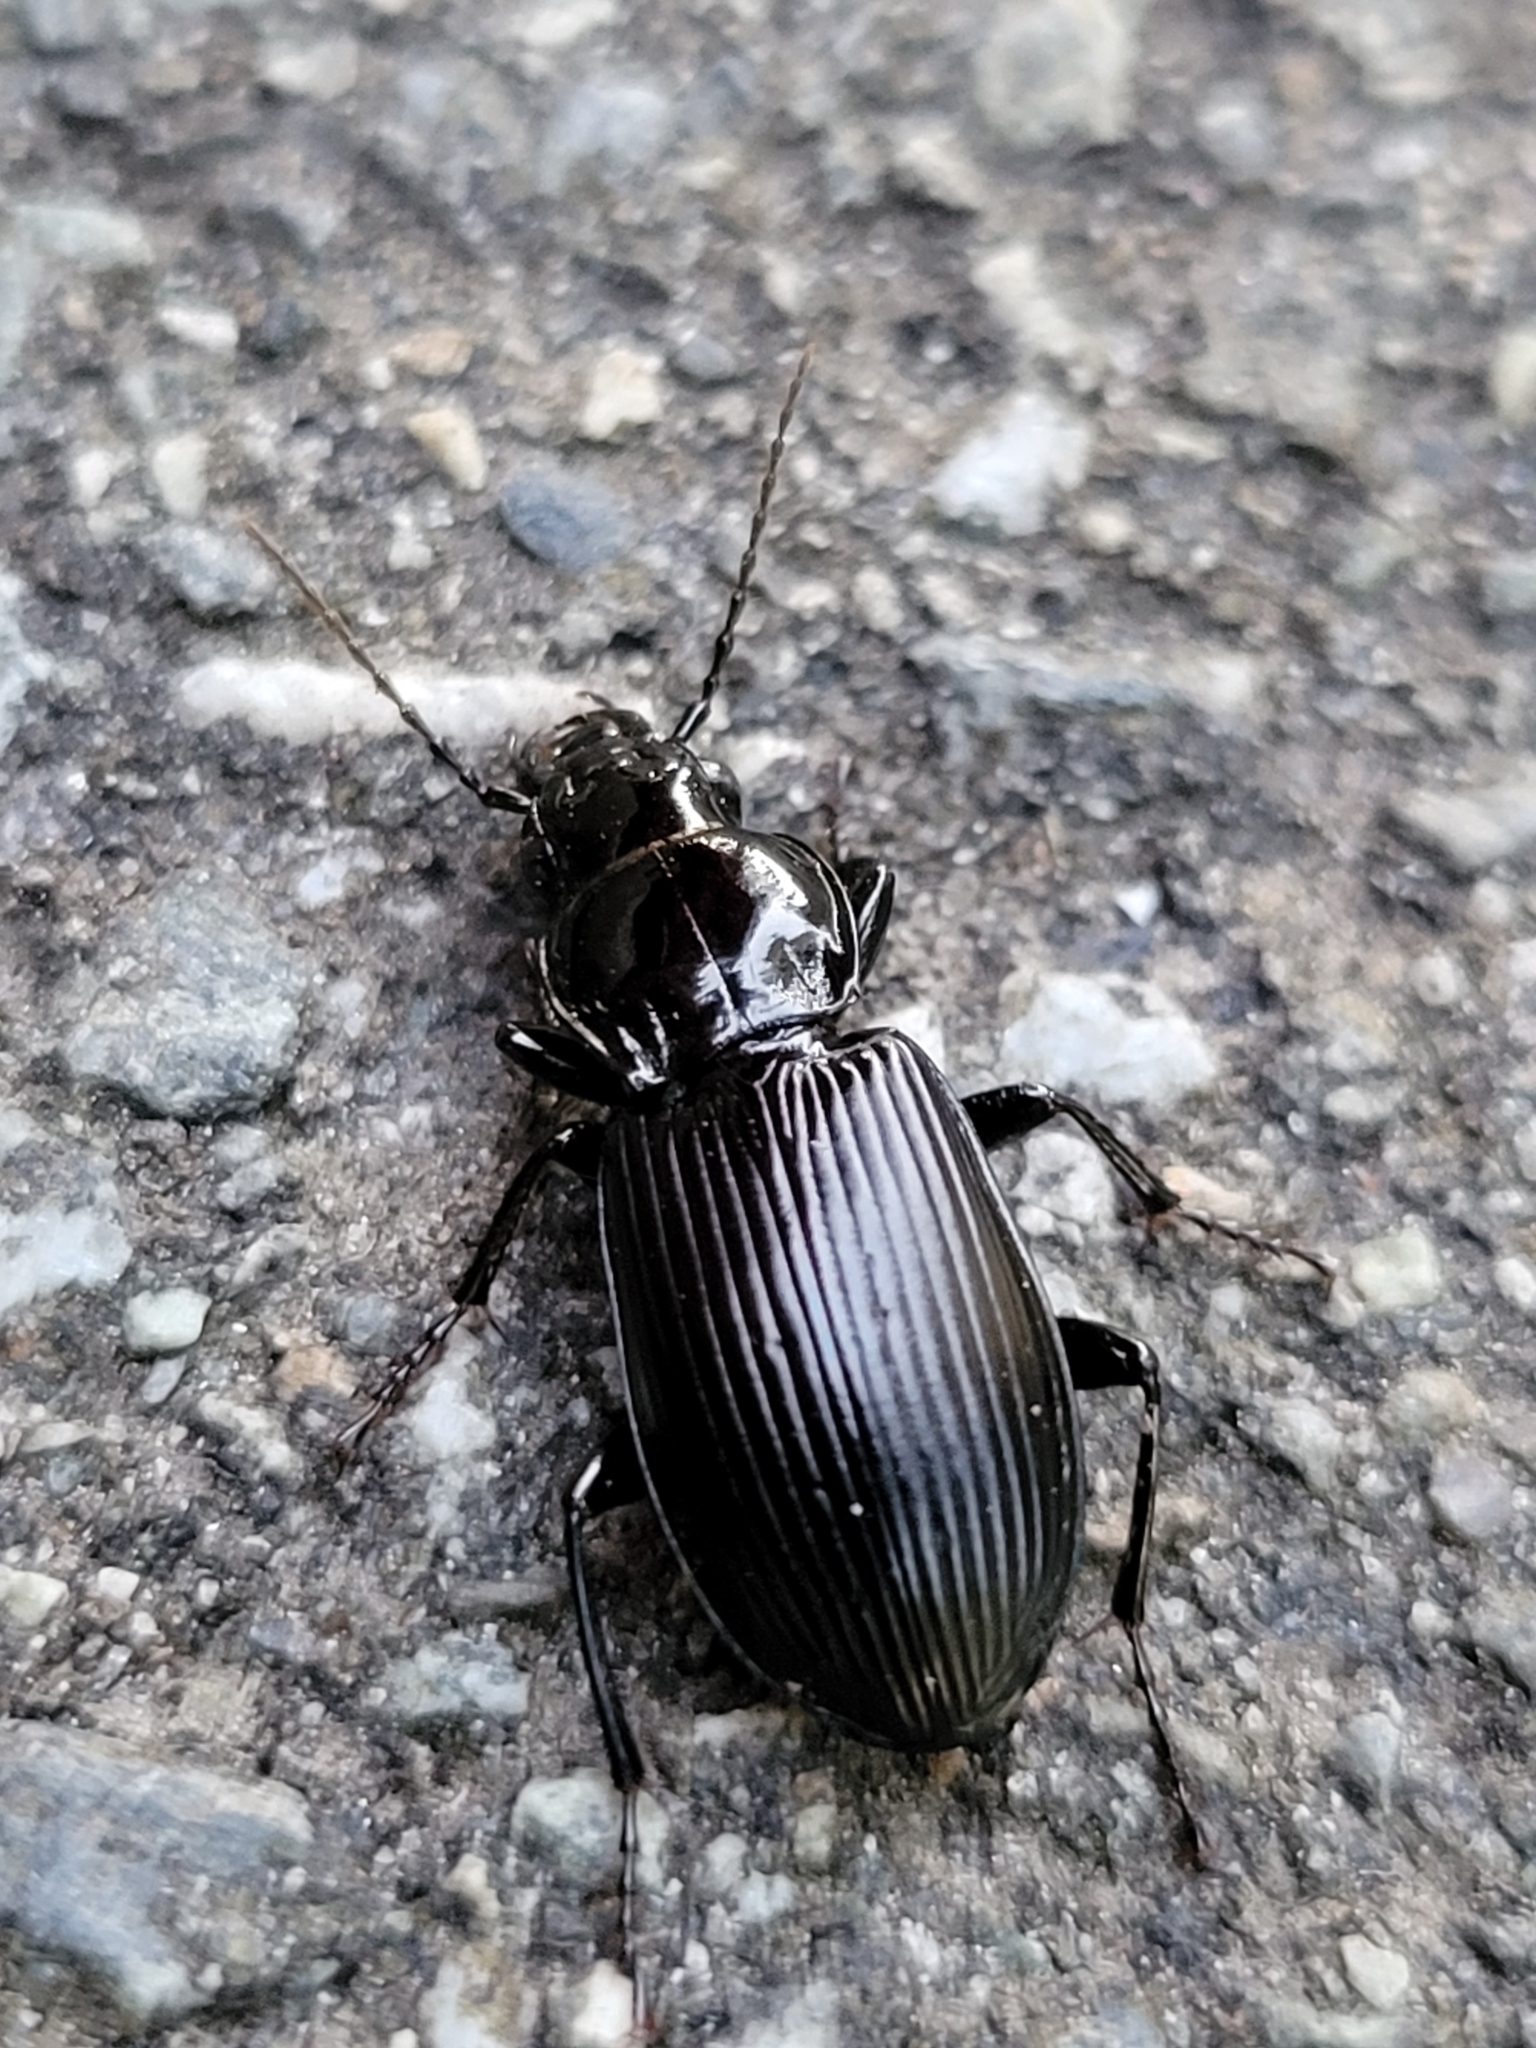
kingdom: Animalia
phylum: Arthropoda
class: Insecta
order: Coleoptera
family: Carabidae
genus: Pterostichus
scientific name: Pterostichus melanarius
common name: European dark harp ground beetle
